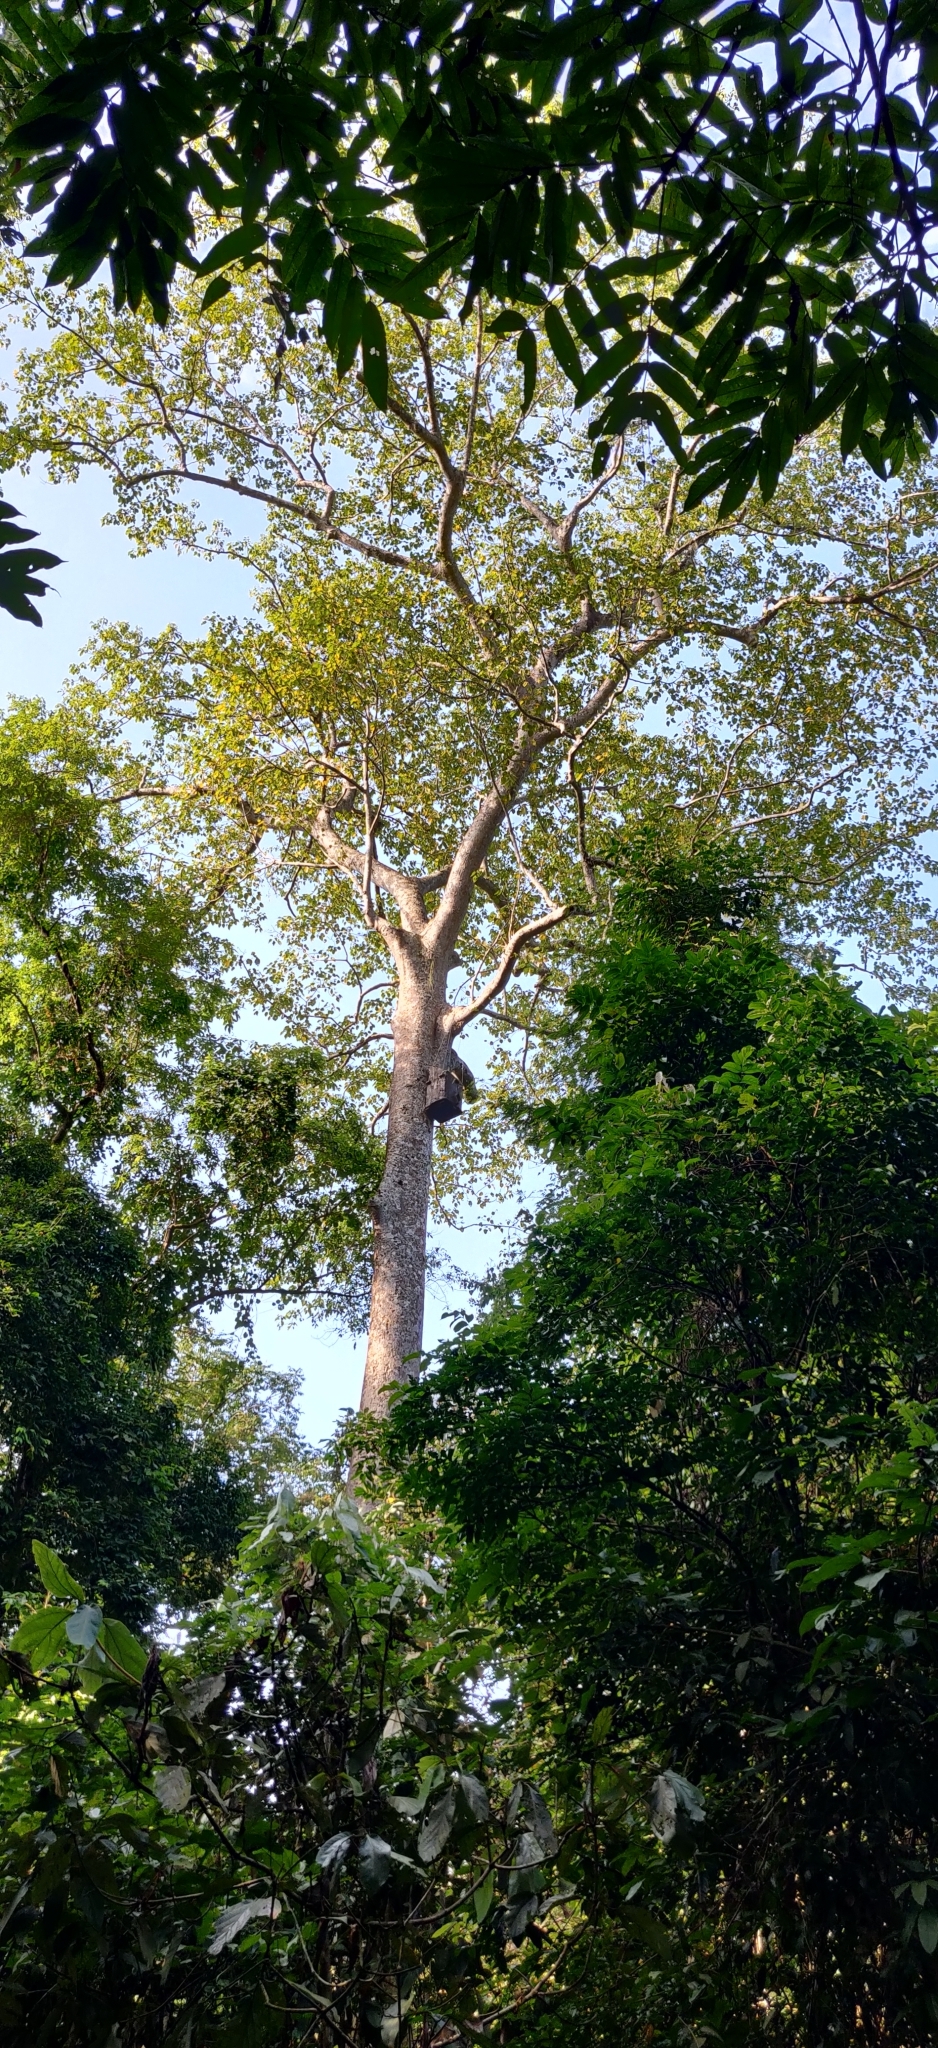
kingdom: Plantae
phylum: Tracheophyta
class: Magnoliopsida
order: Cucurbitales
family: Tetramelaceae
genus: Tetrameles
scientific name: Tetrameles nudiflora
